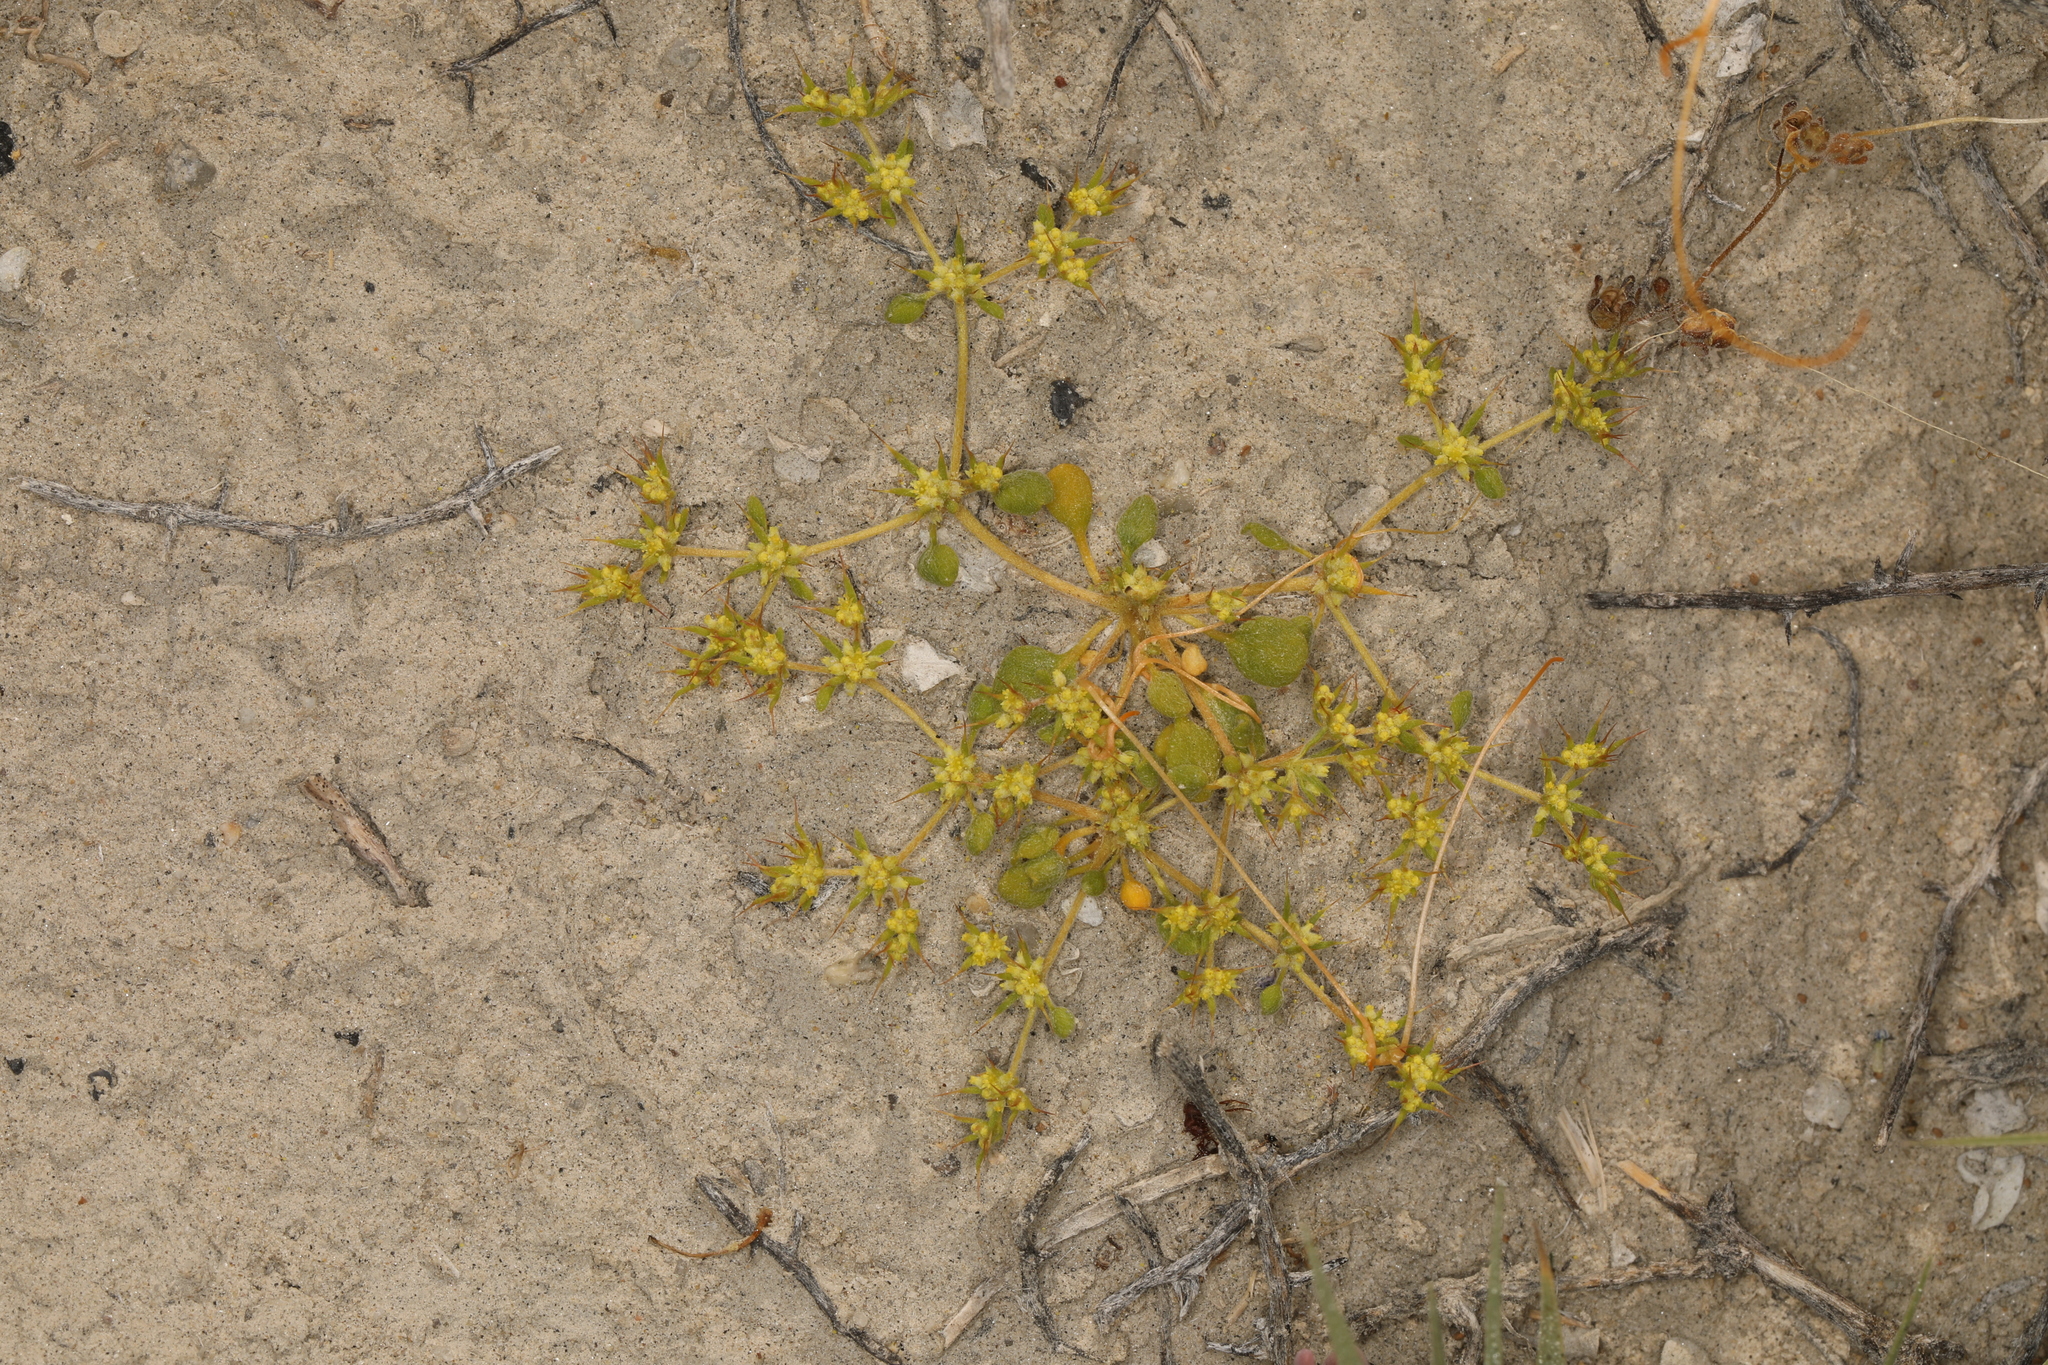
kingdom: Plantae
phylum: Tracheophyta
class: Magnoliopsida
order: Caryophyllales
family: Polygonaceae
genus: Goodmania
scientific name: Goodmania luteola
